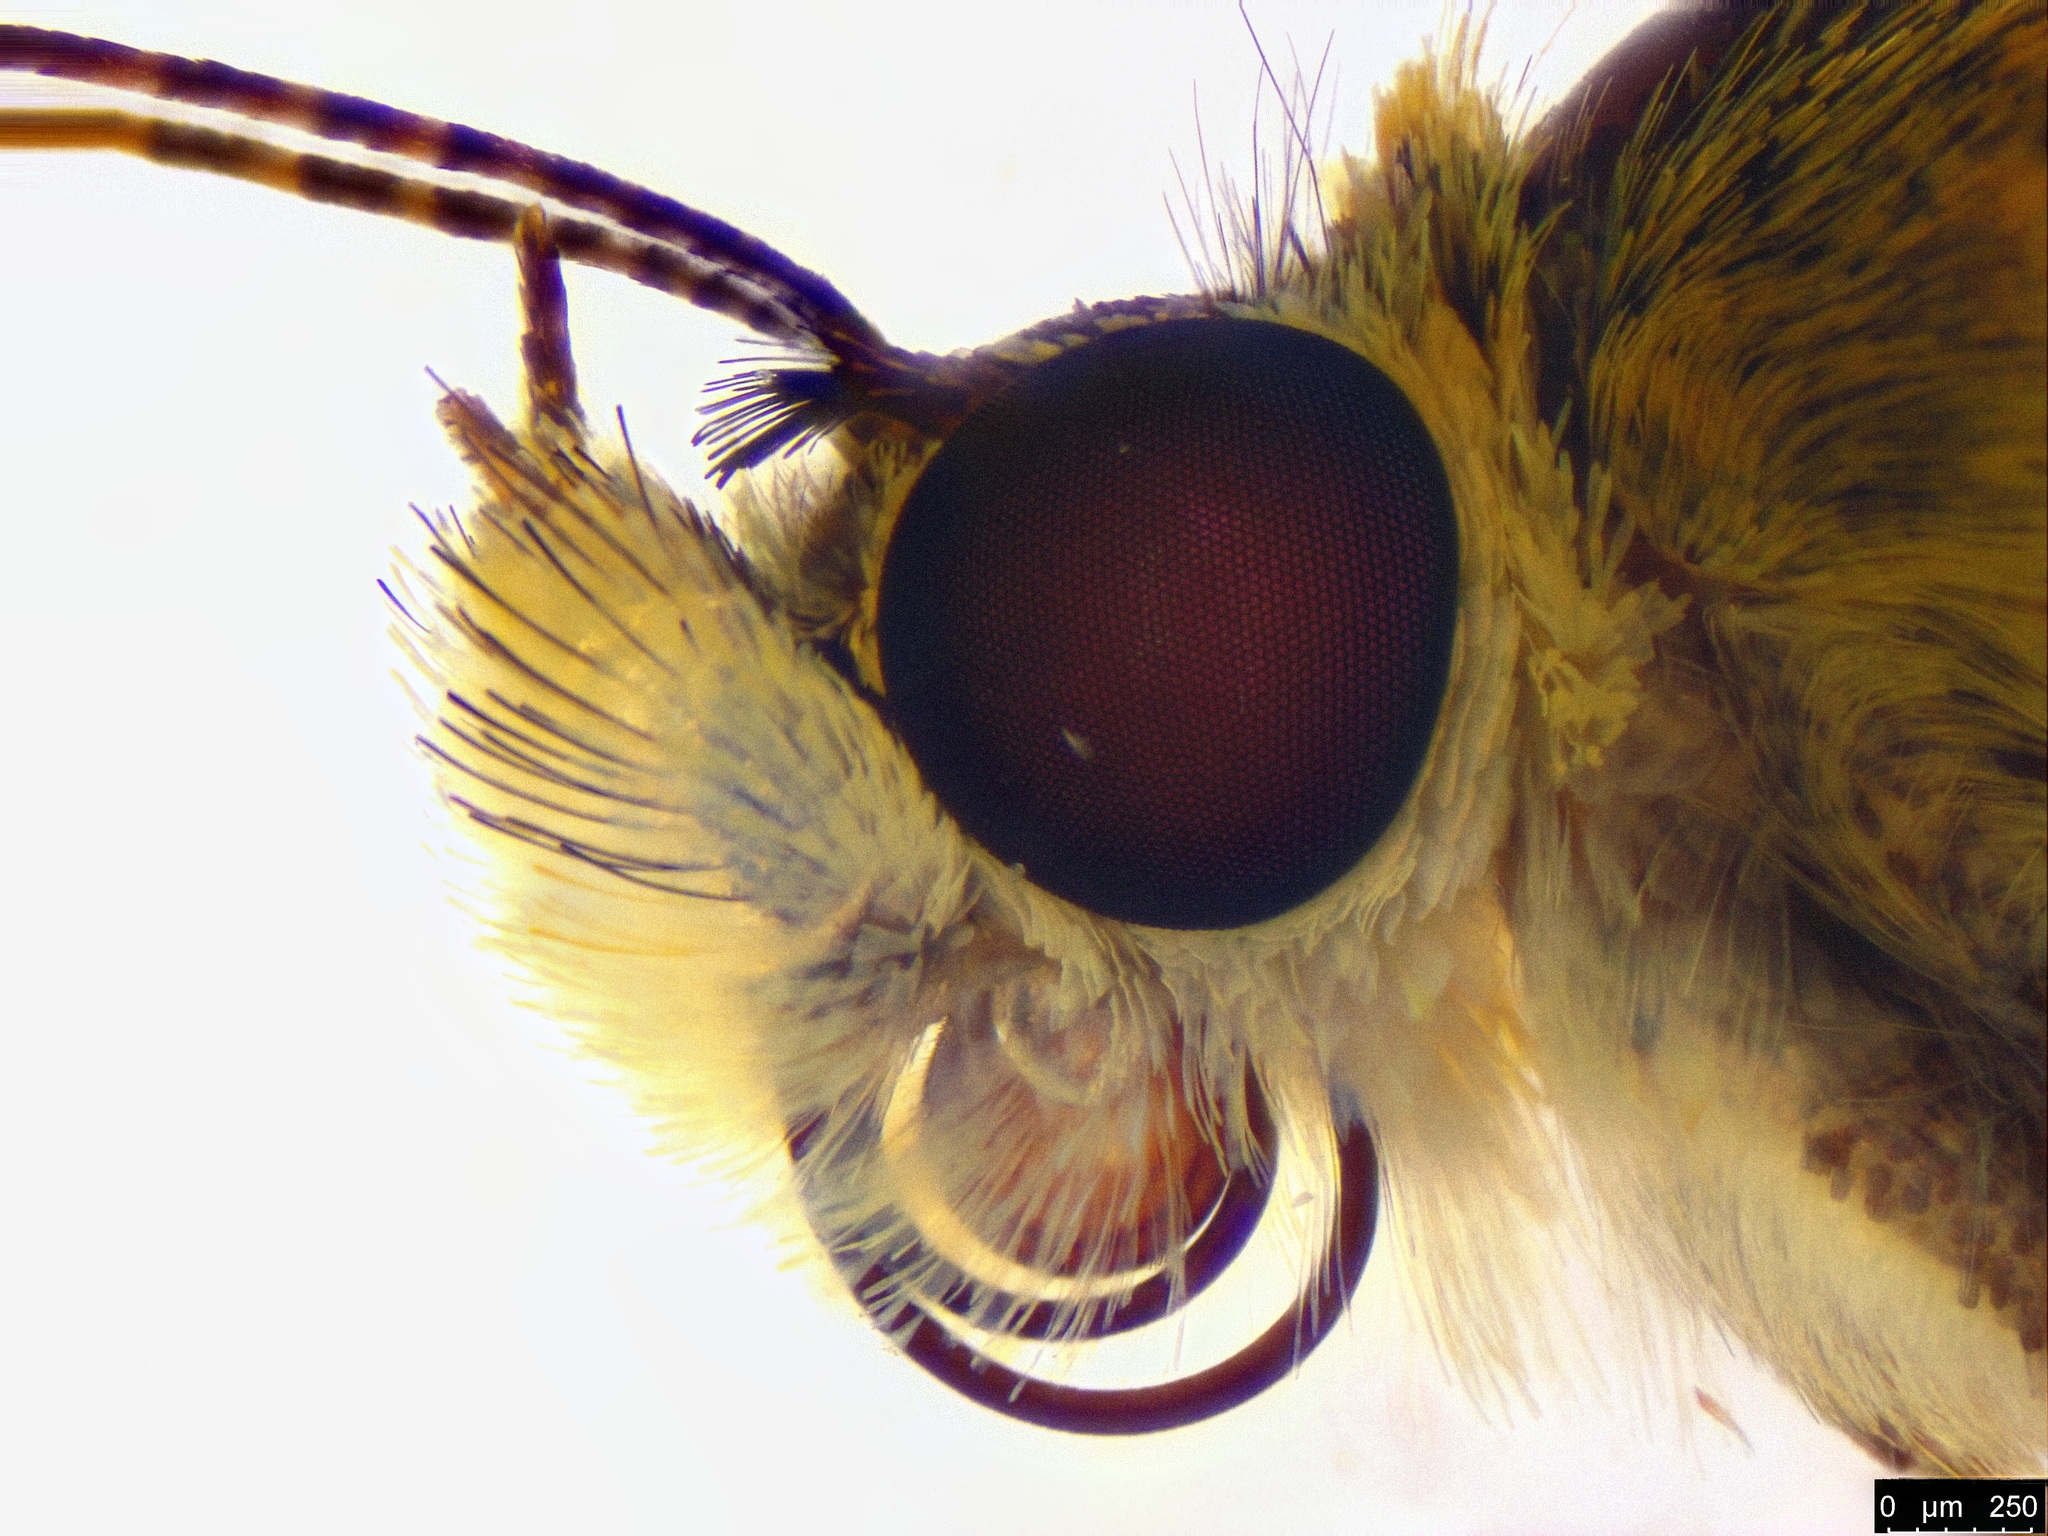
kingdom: Animalia
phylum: Arthropoda
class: Insecta
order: Lepidoptera
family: Hesperiidae
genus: Ocybadistes
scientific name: Ocybadistes walkeri
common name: Yellow-banded dart
